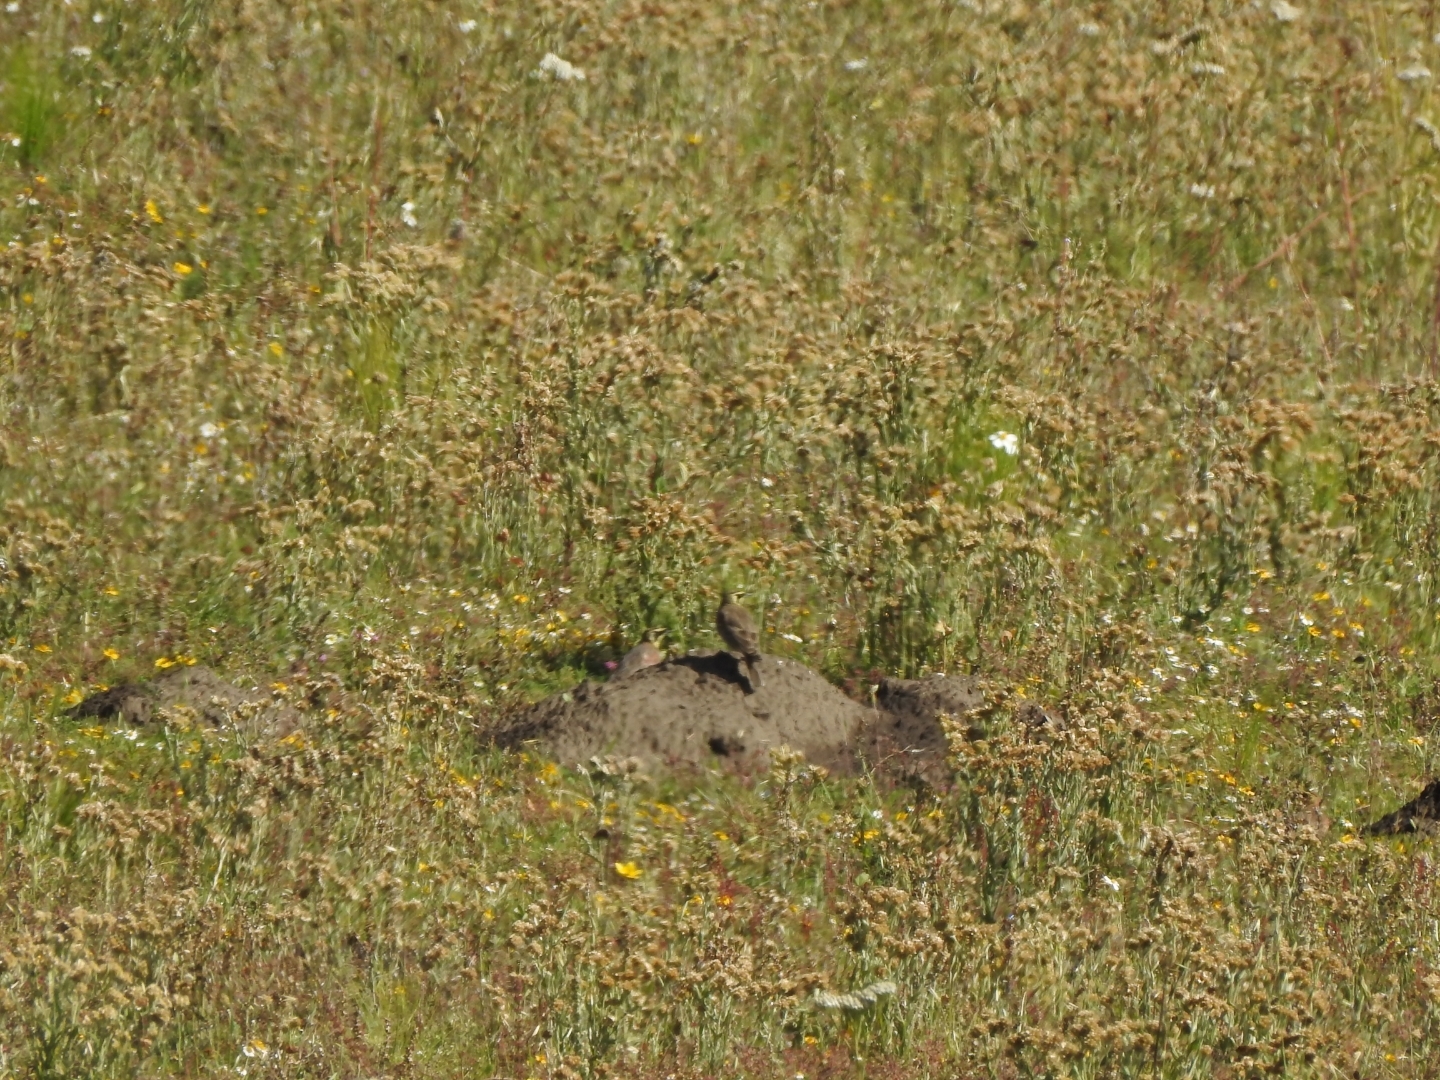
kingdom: Animalia
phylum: Chordata
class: Aves
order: Passeriformes
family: Alaudidae
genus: Eremophila
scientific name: Eremophila alpestris
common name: Horned lark
